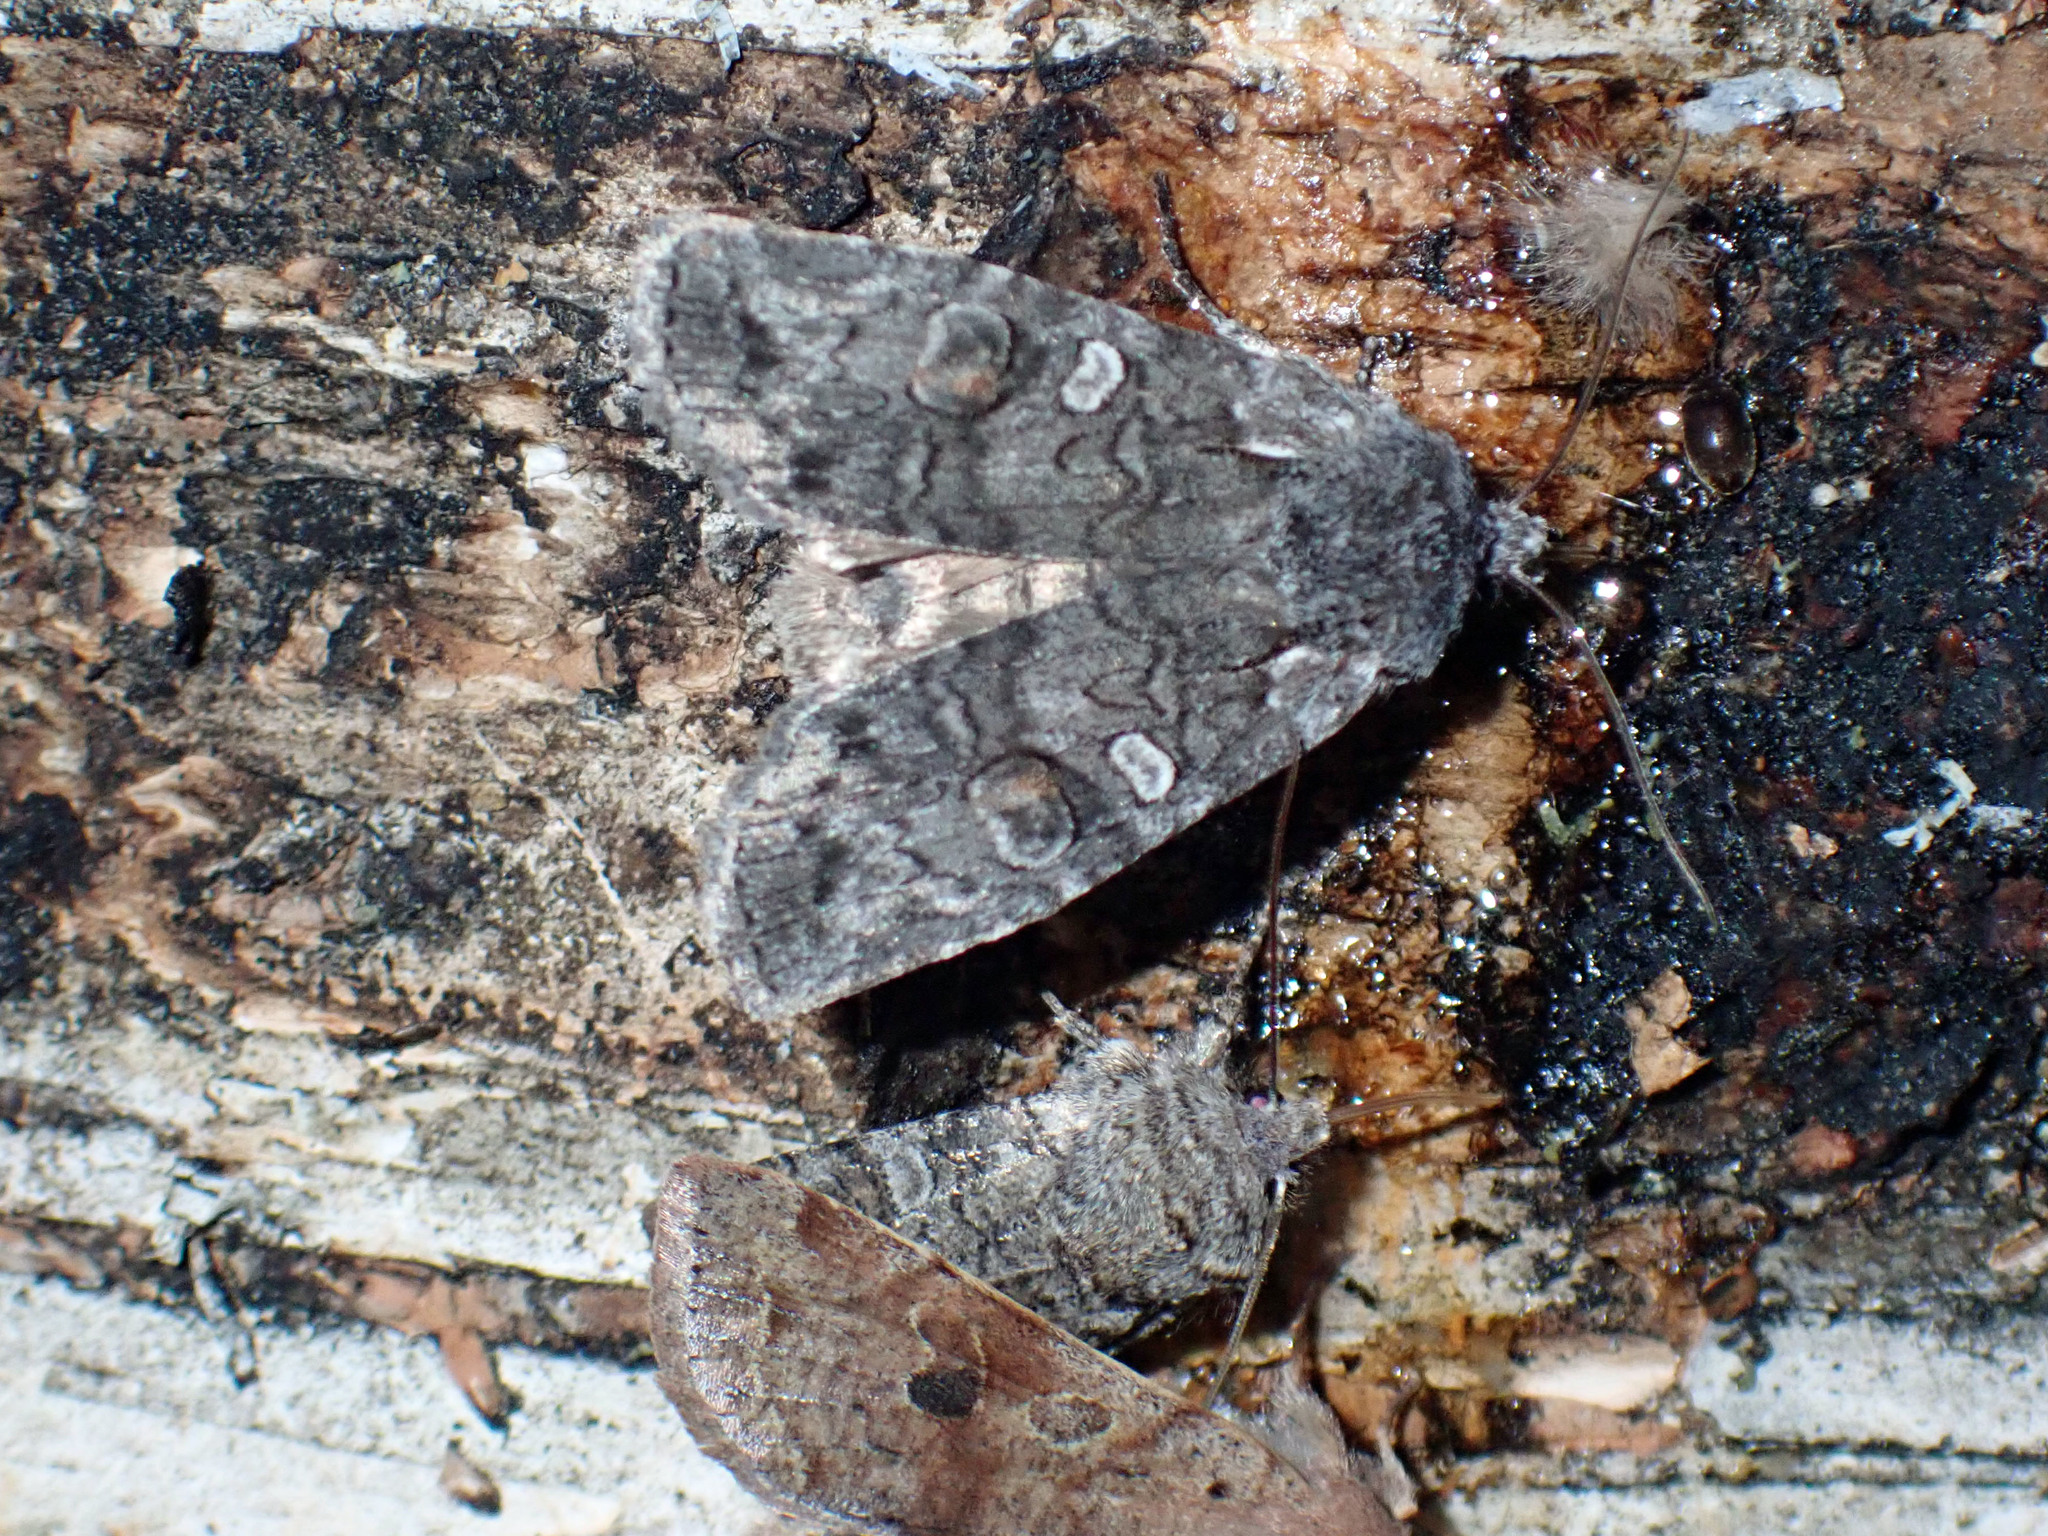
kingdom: Animalia
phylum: Arthropoda
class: Insecta
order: Lepidoptera
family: Noctuidae
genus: Lithophane
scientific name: Lithophane tepida
